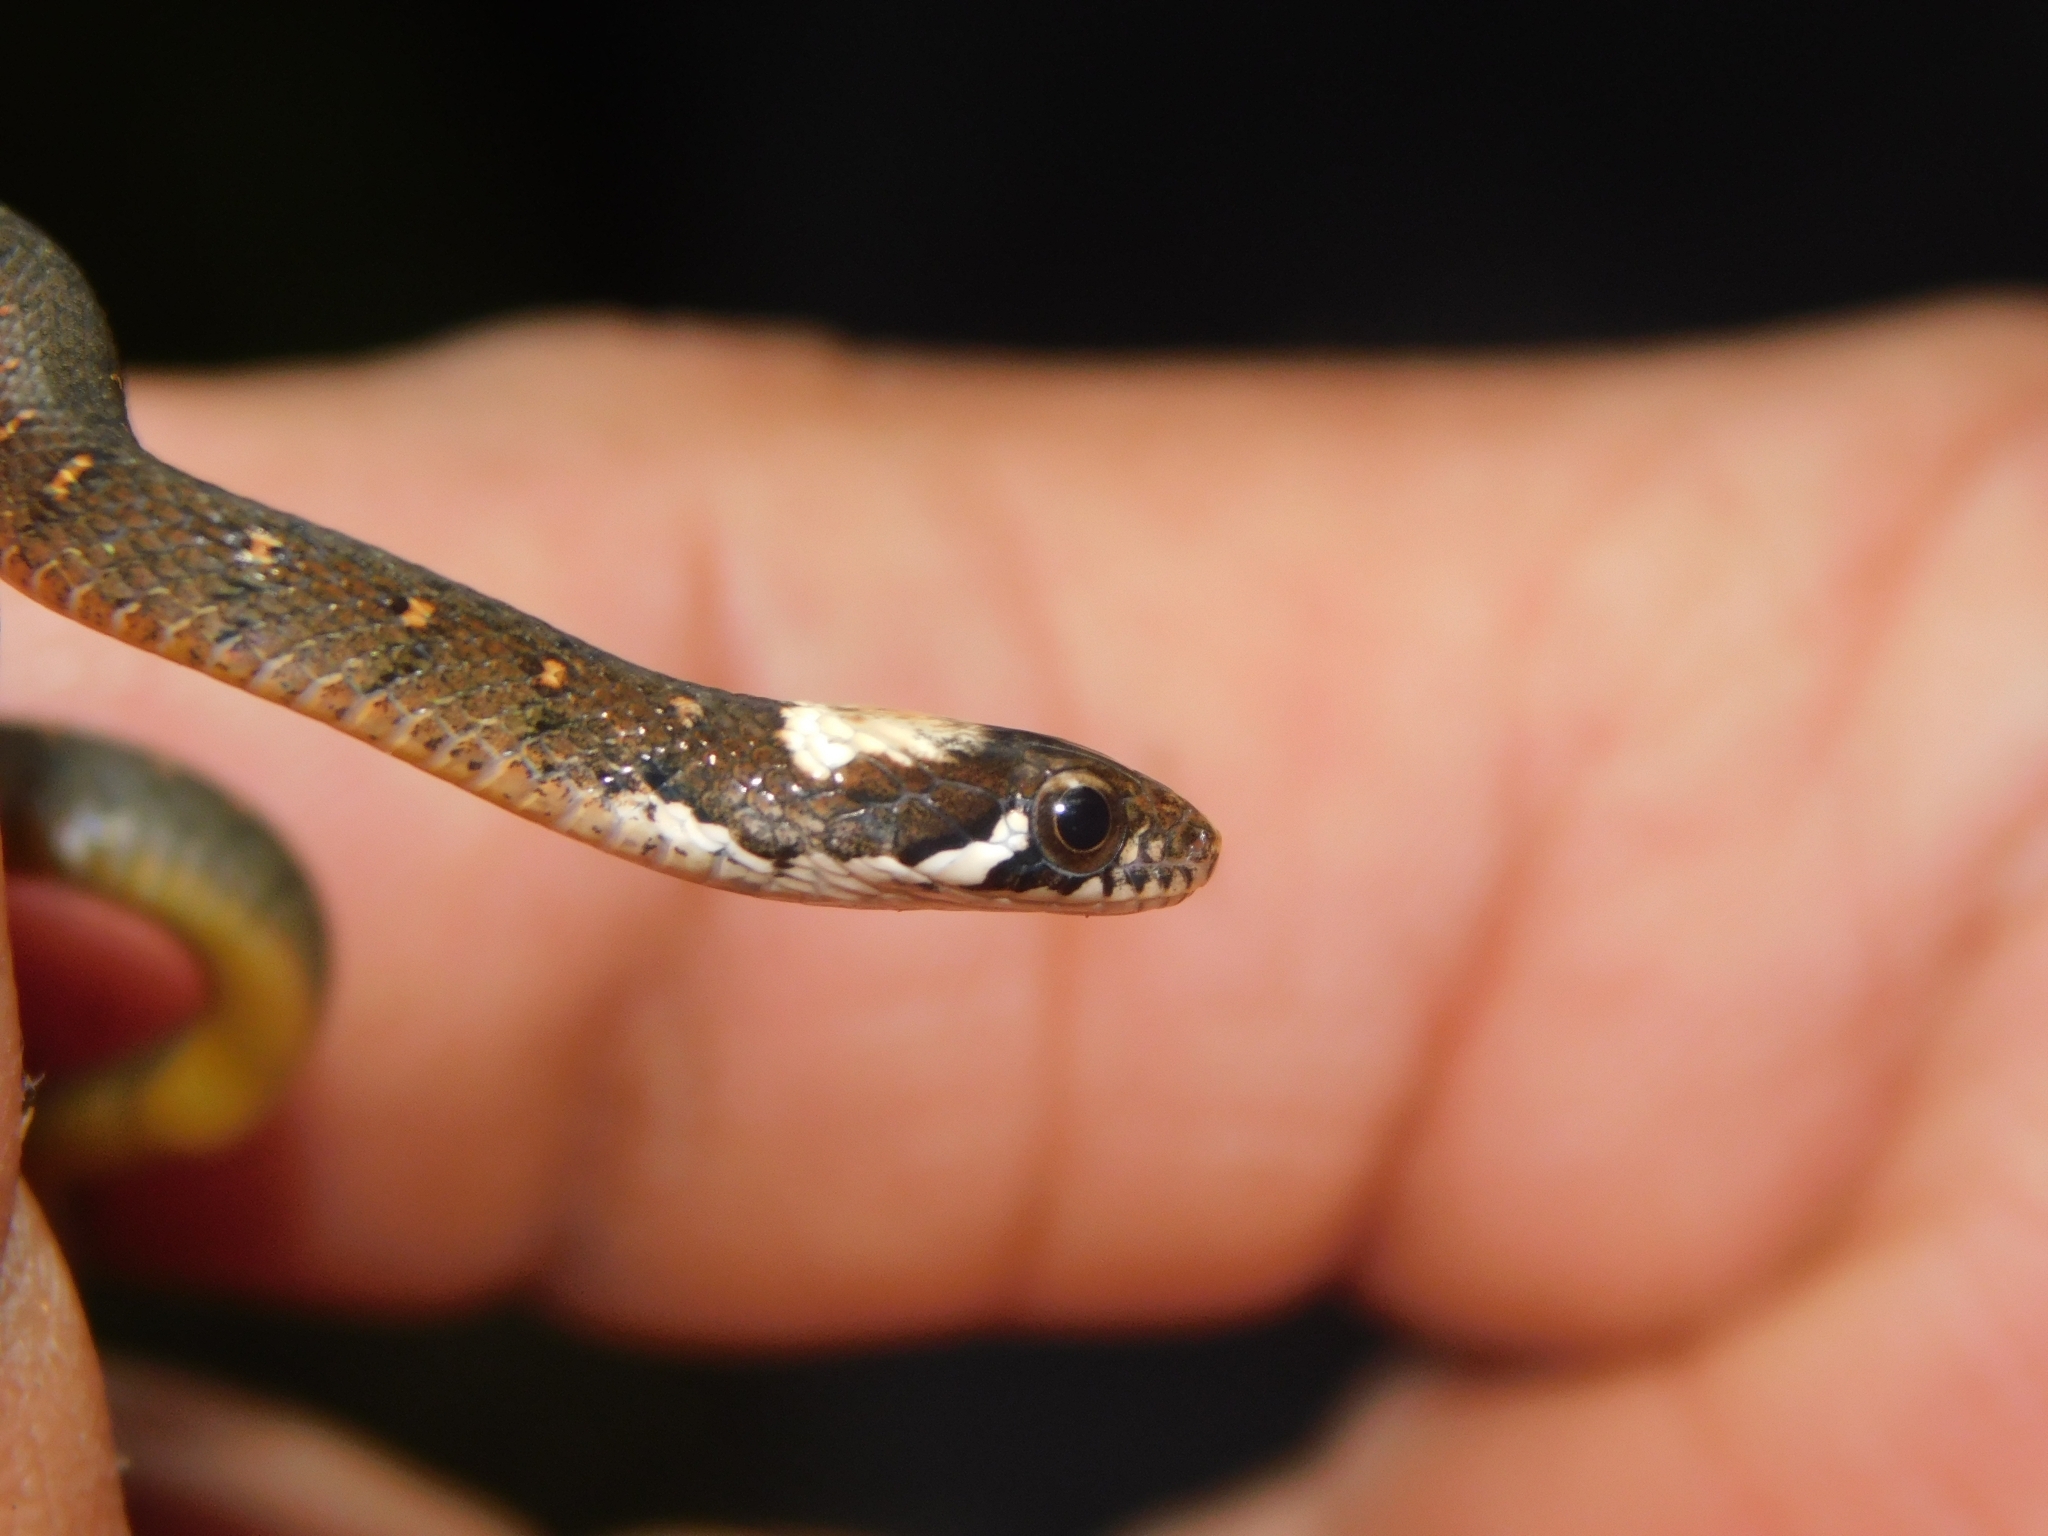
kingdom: Animalia
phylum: Chordata
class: Squamata
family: Colubridae
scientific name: Colubridae
